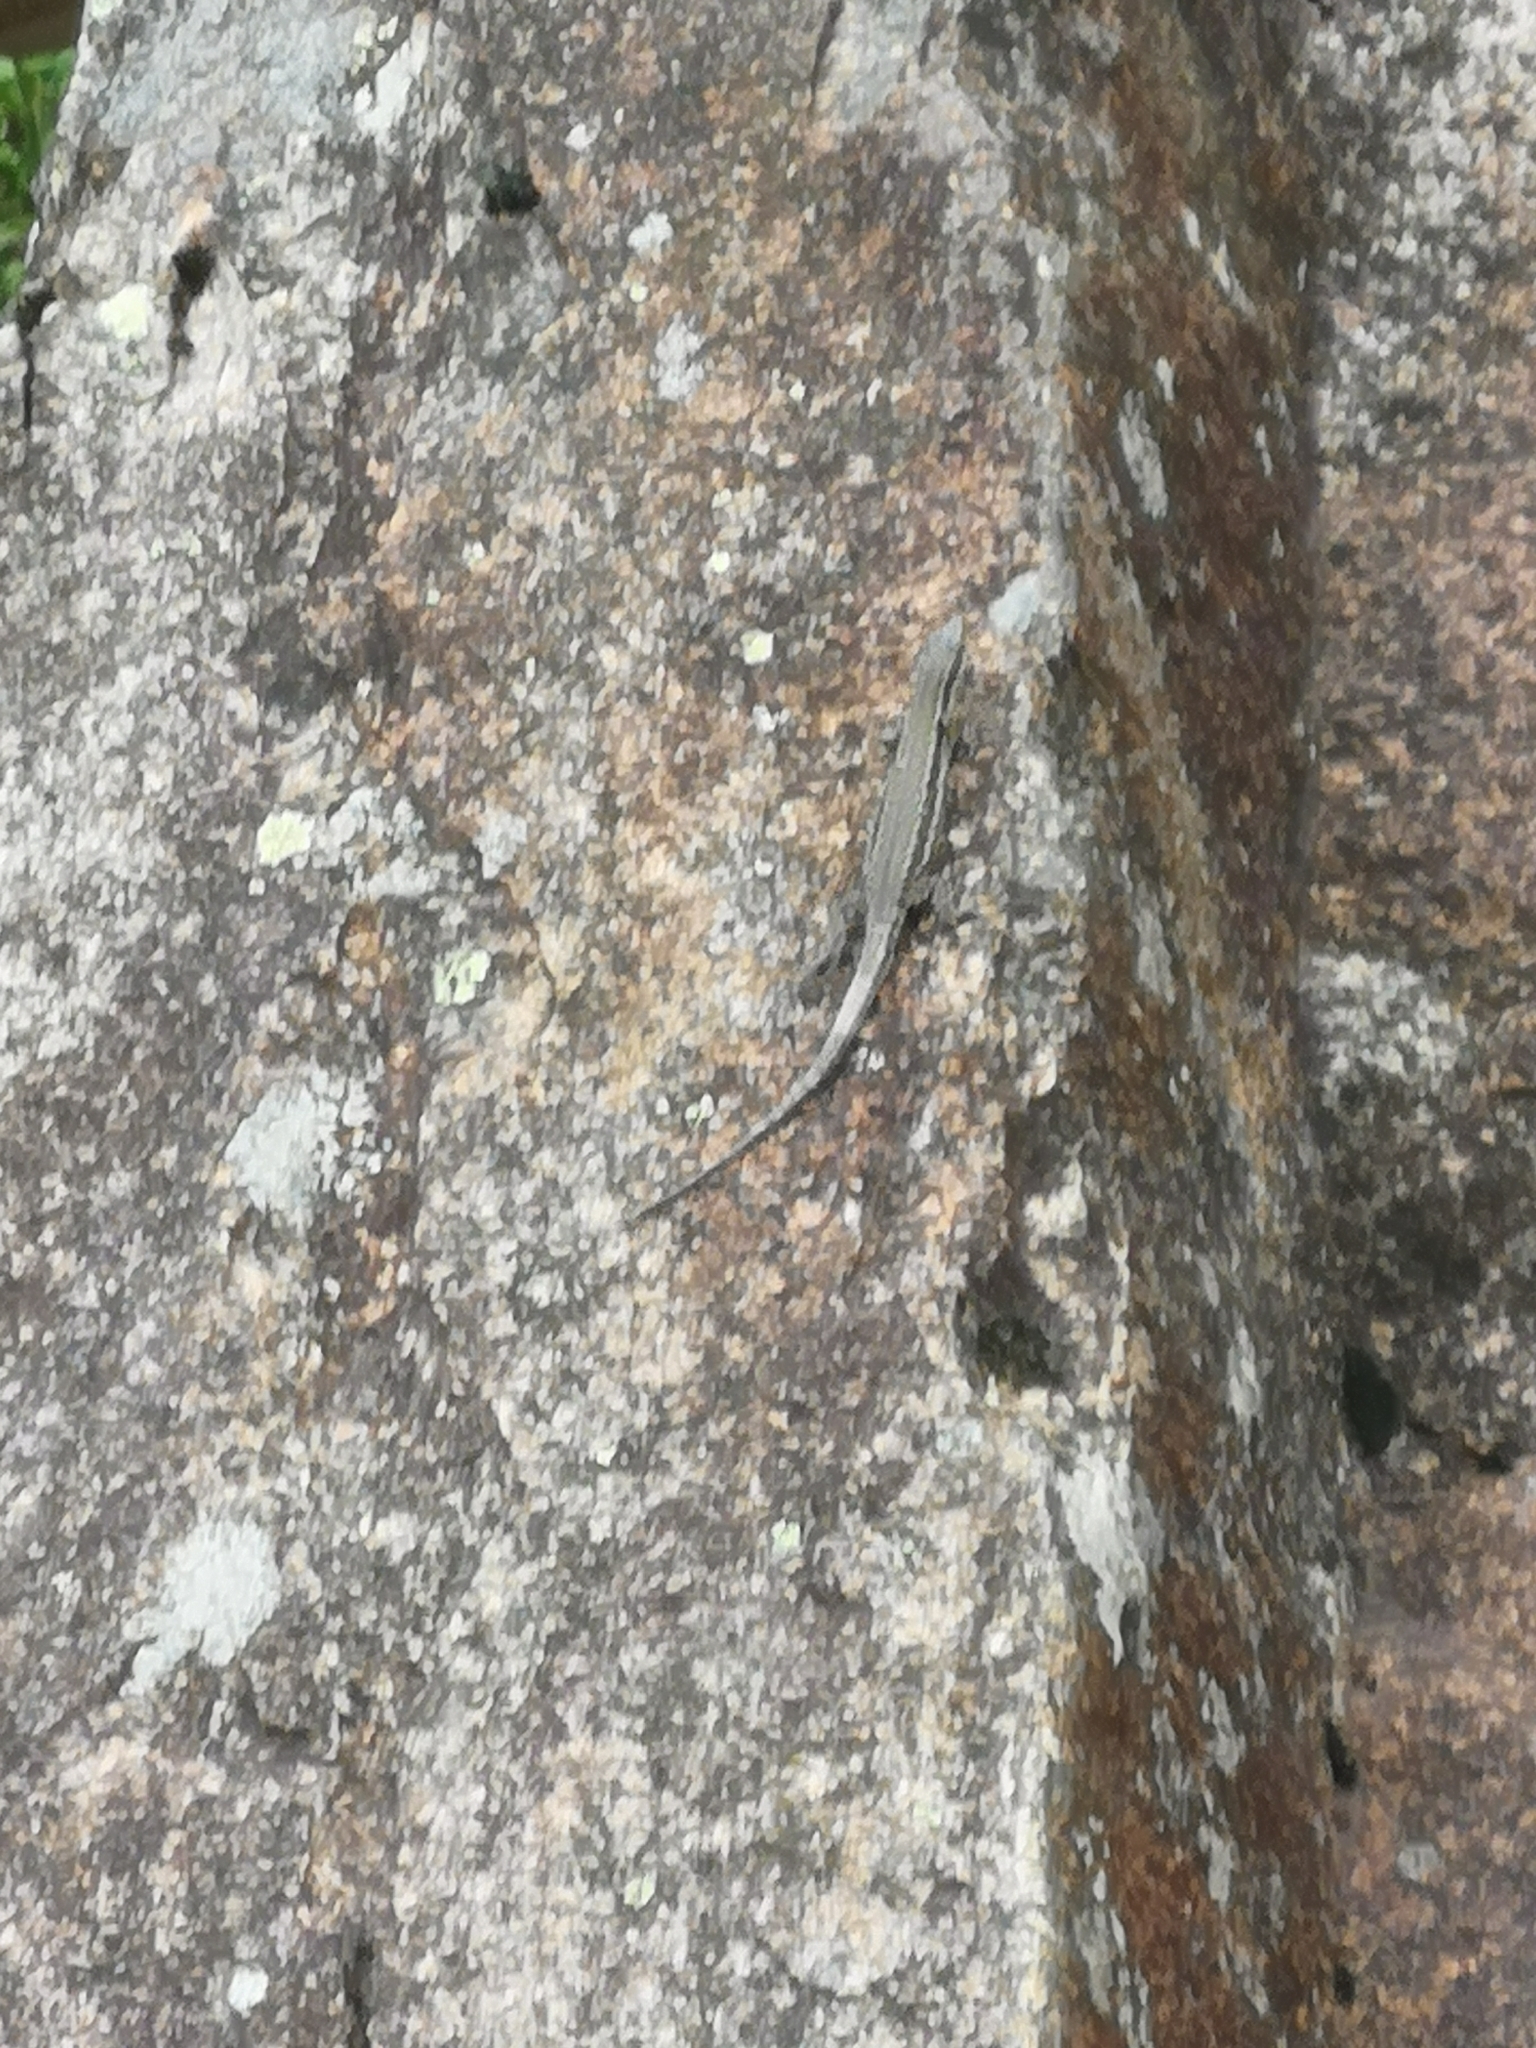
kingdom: Animalia
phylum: Chordata
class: Squamata
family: Lacertidae
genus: Podarcis
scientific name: Podarcis muralis
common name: Common wall lizard
